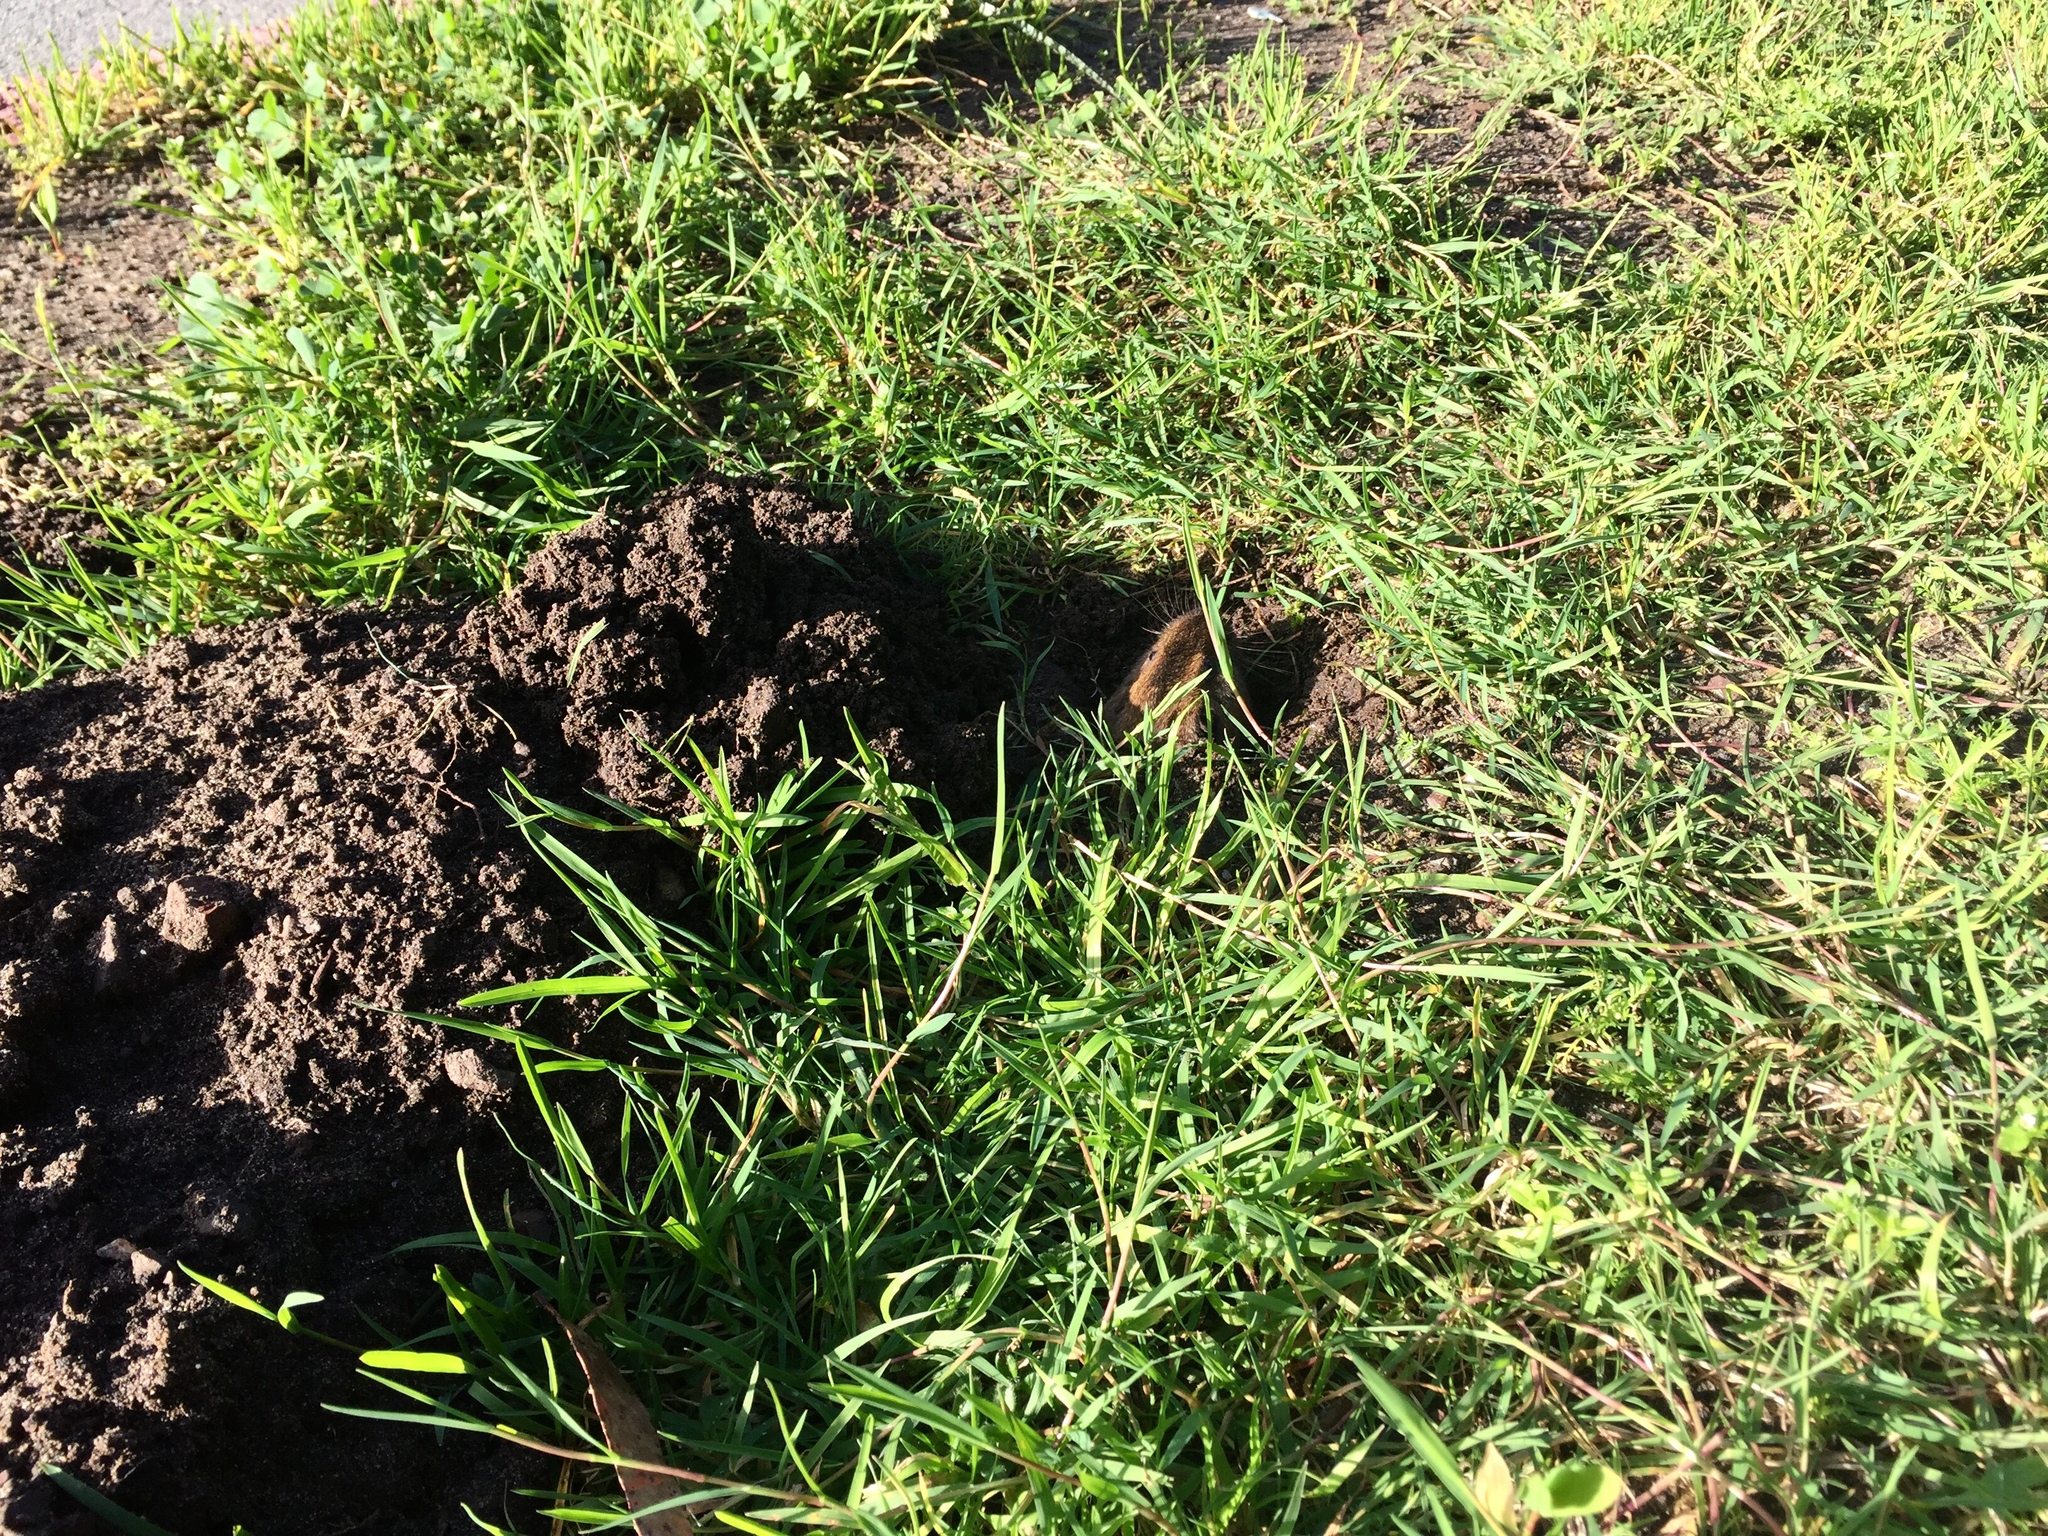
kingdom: Animalia
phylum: Chordata
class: Mammalia
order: Rodentia
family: Geomyidae
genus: Thomomys
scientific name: Thomomys bottae
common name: Botta's pocket gopher
